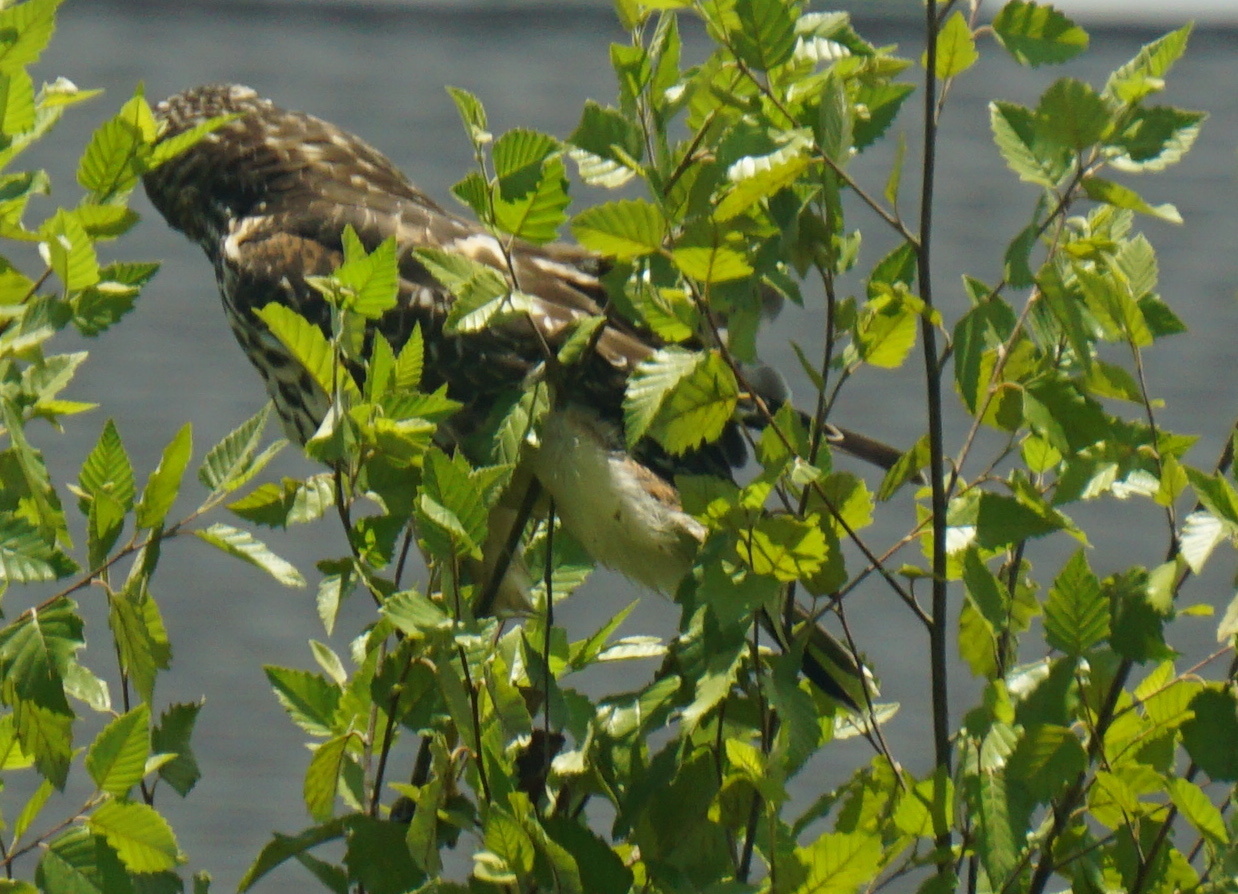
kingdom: Animalia
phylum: Chordata
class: Aves
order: Accipitriformes
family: Accipitridae
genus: Buteo
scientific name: Buteo lineatus
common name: Red-shouldered hawk
